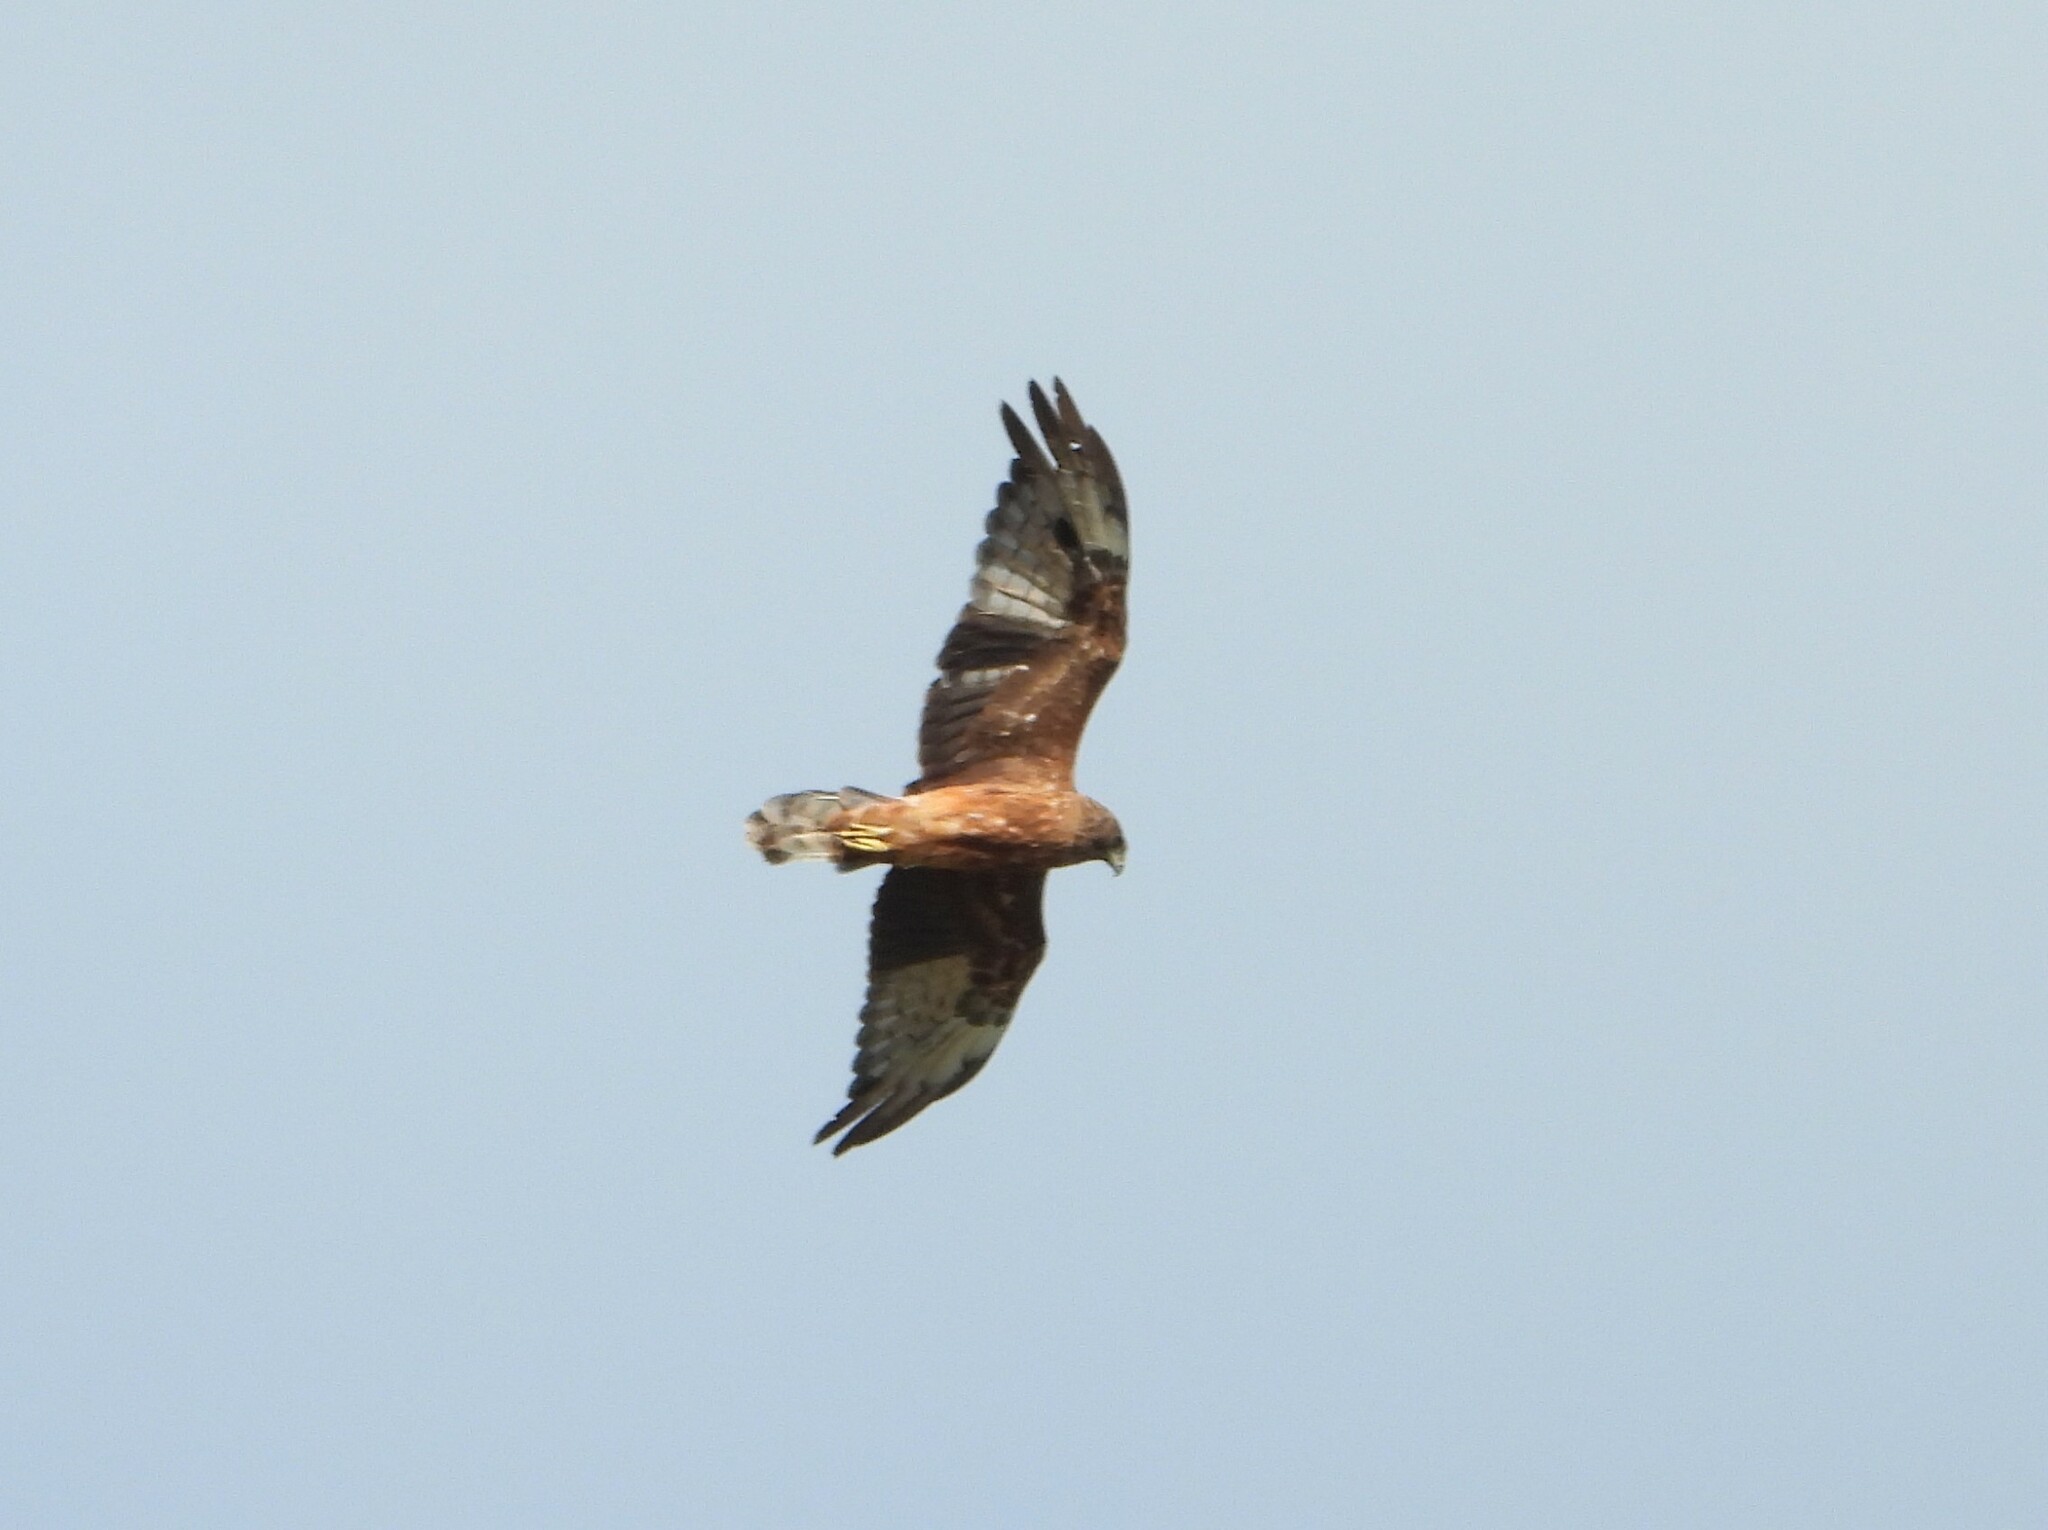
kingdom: Animalia
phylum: Chordata
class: Aves
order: Accipitriformes
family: Accipitridae
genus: Circus
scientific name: Circus approximans
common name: Swamp harrier
